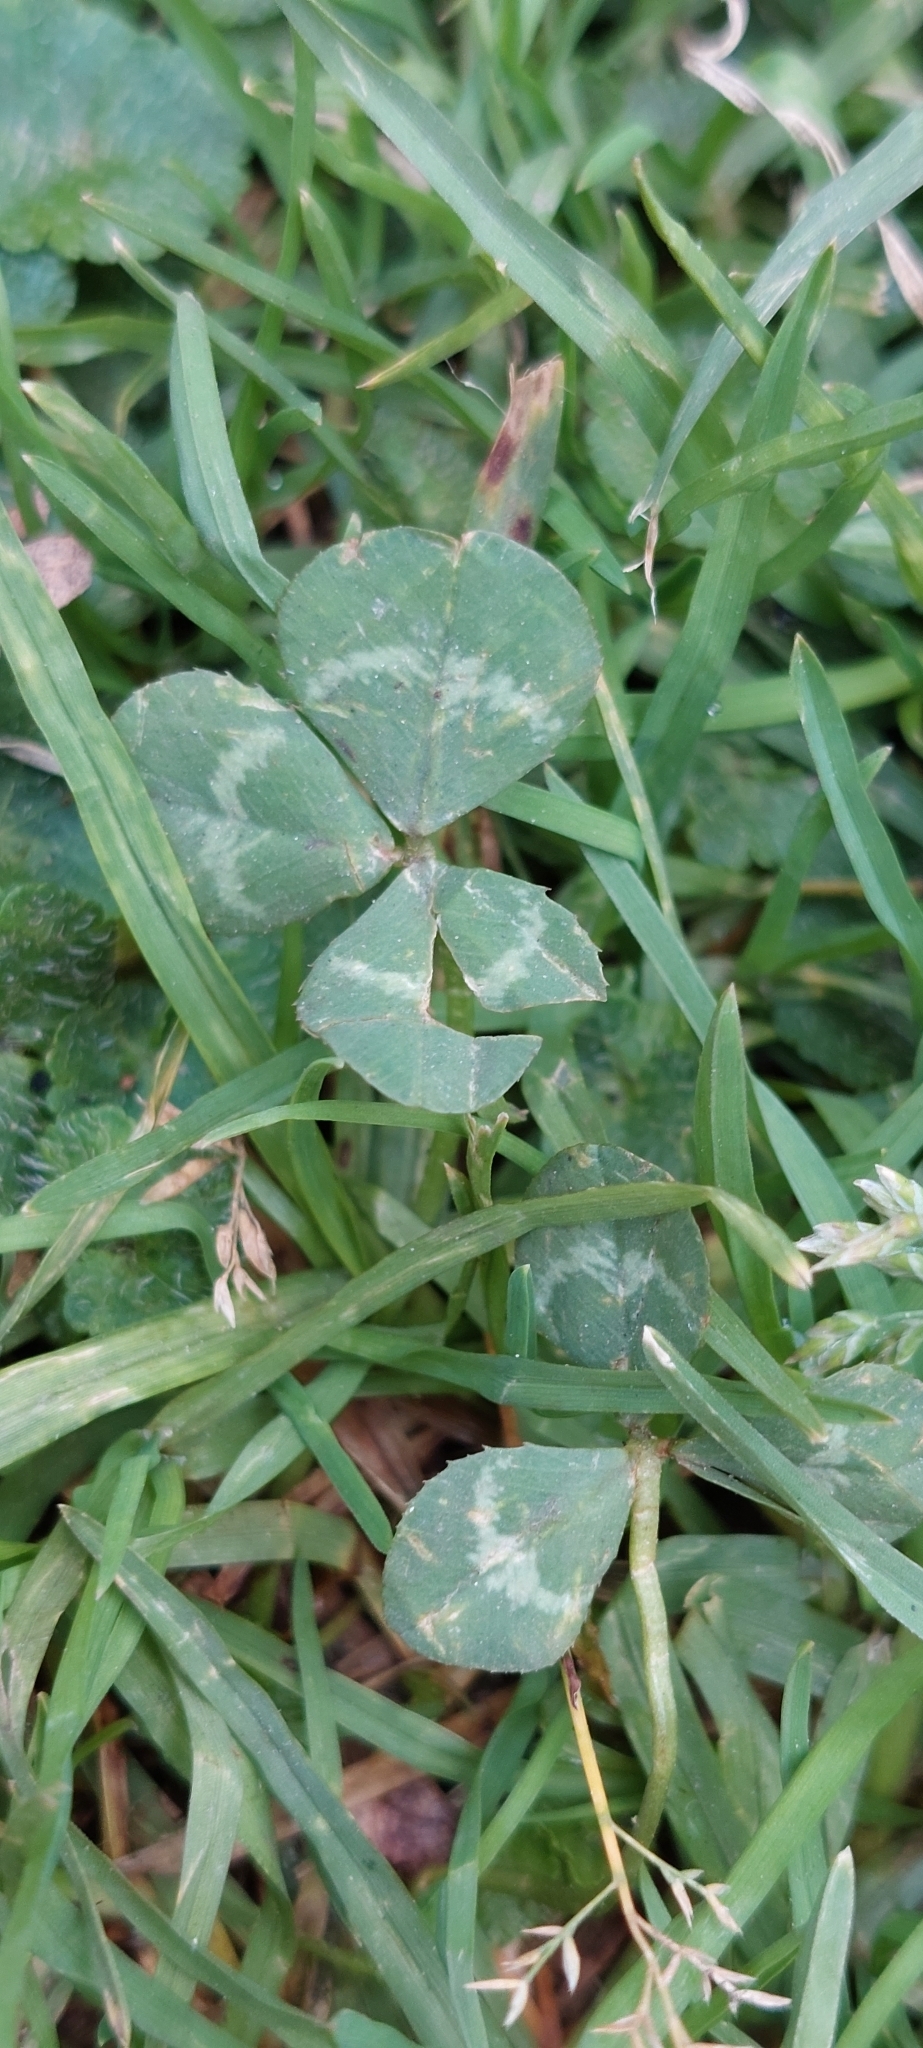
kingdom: Plantae
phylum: Tracheophyta
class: Magnoliopsida
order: Fabales
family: Fabaceae
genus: Trifolium
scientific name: Trifolium repens
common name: White clover
